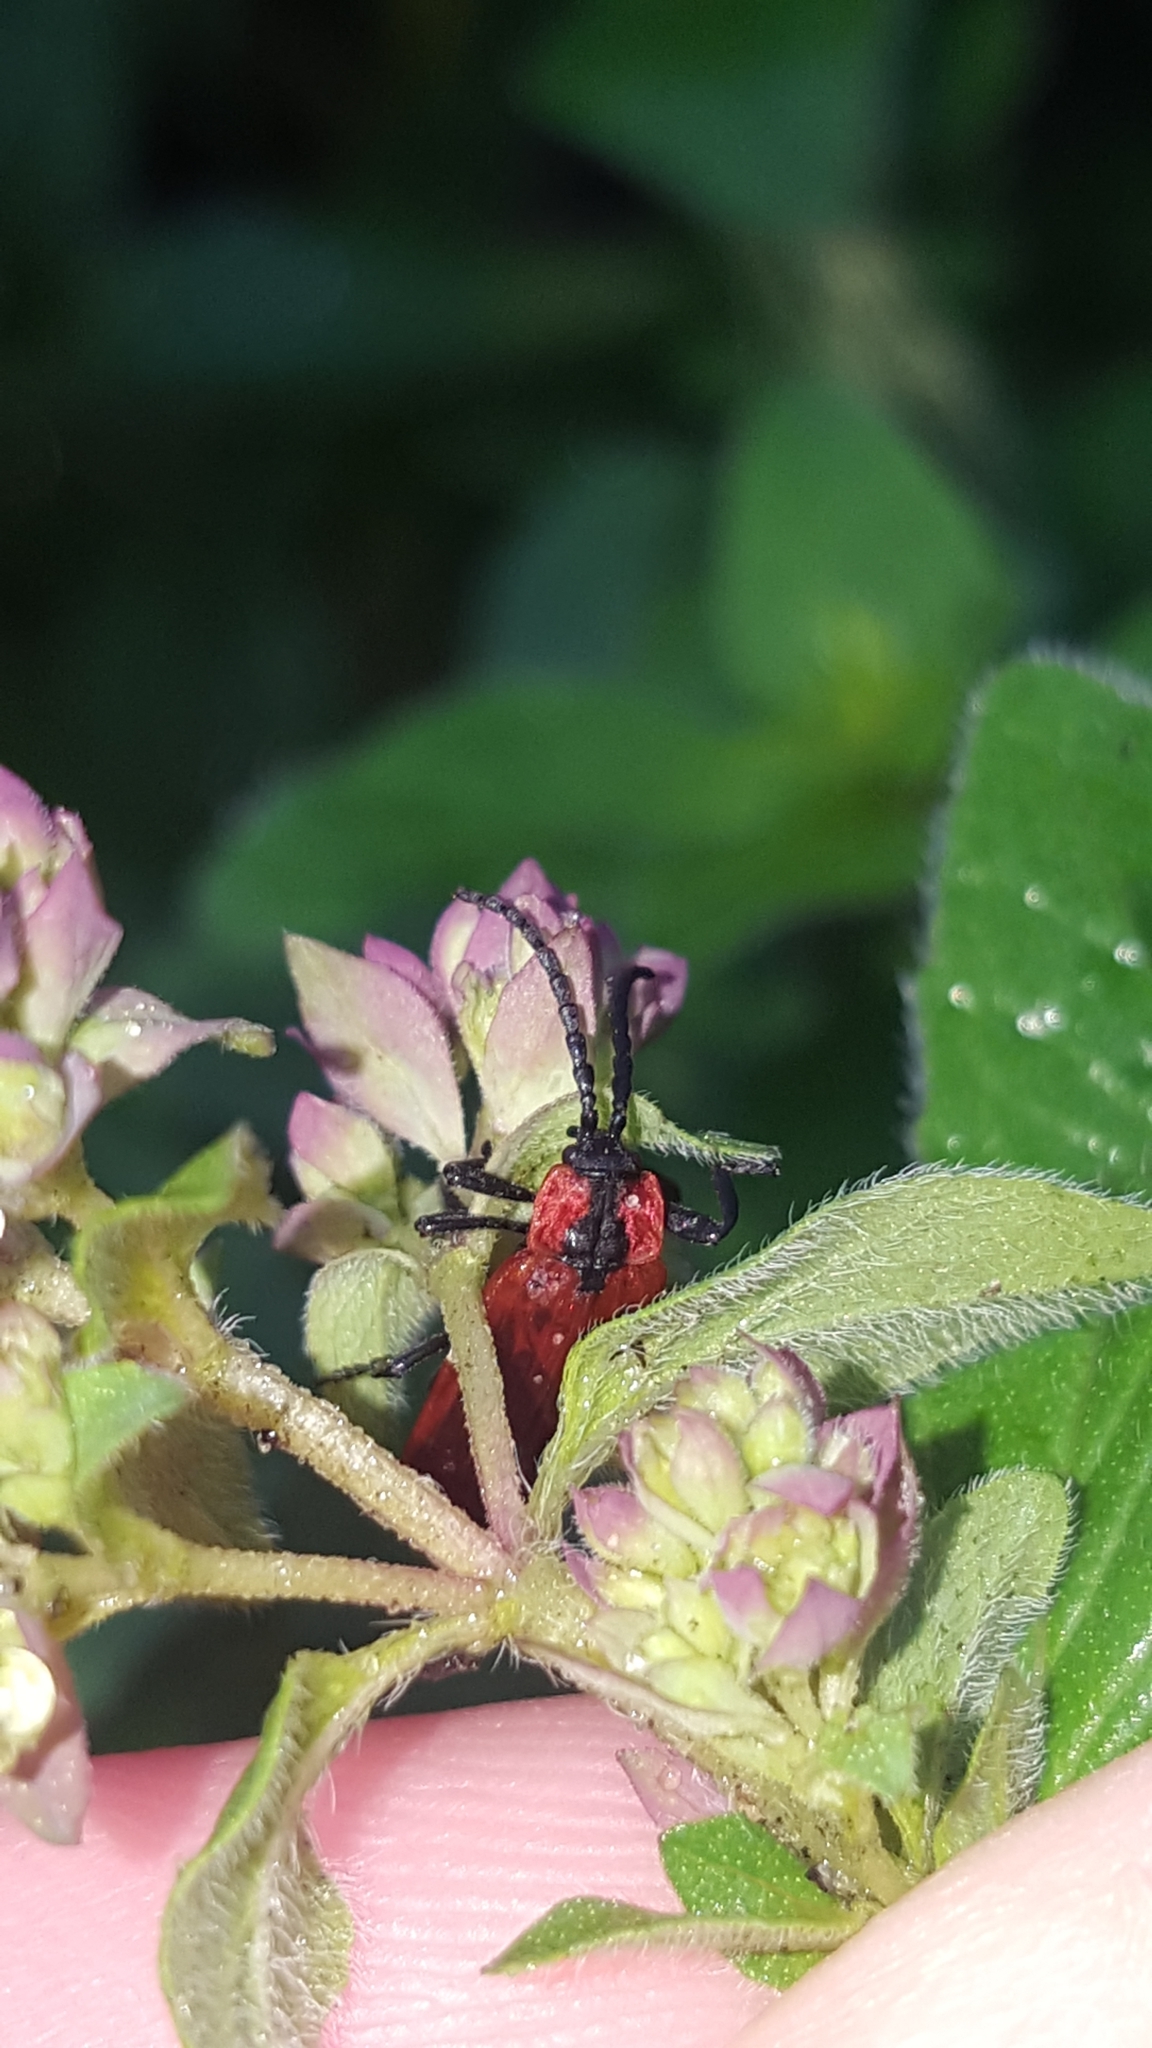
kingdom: Animalia
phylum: Arthropoda
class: Insecta
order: Coleoptera
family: Lycidae
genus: Lygistopterus
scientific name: Lygistopterus sanguineus
